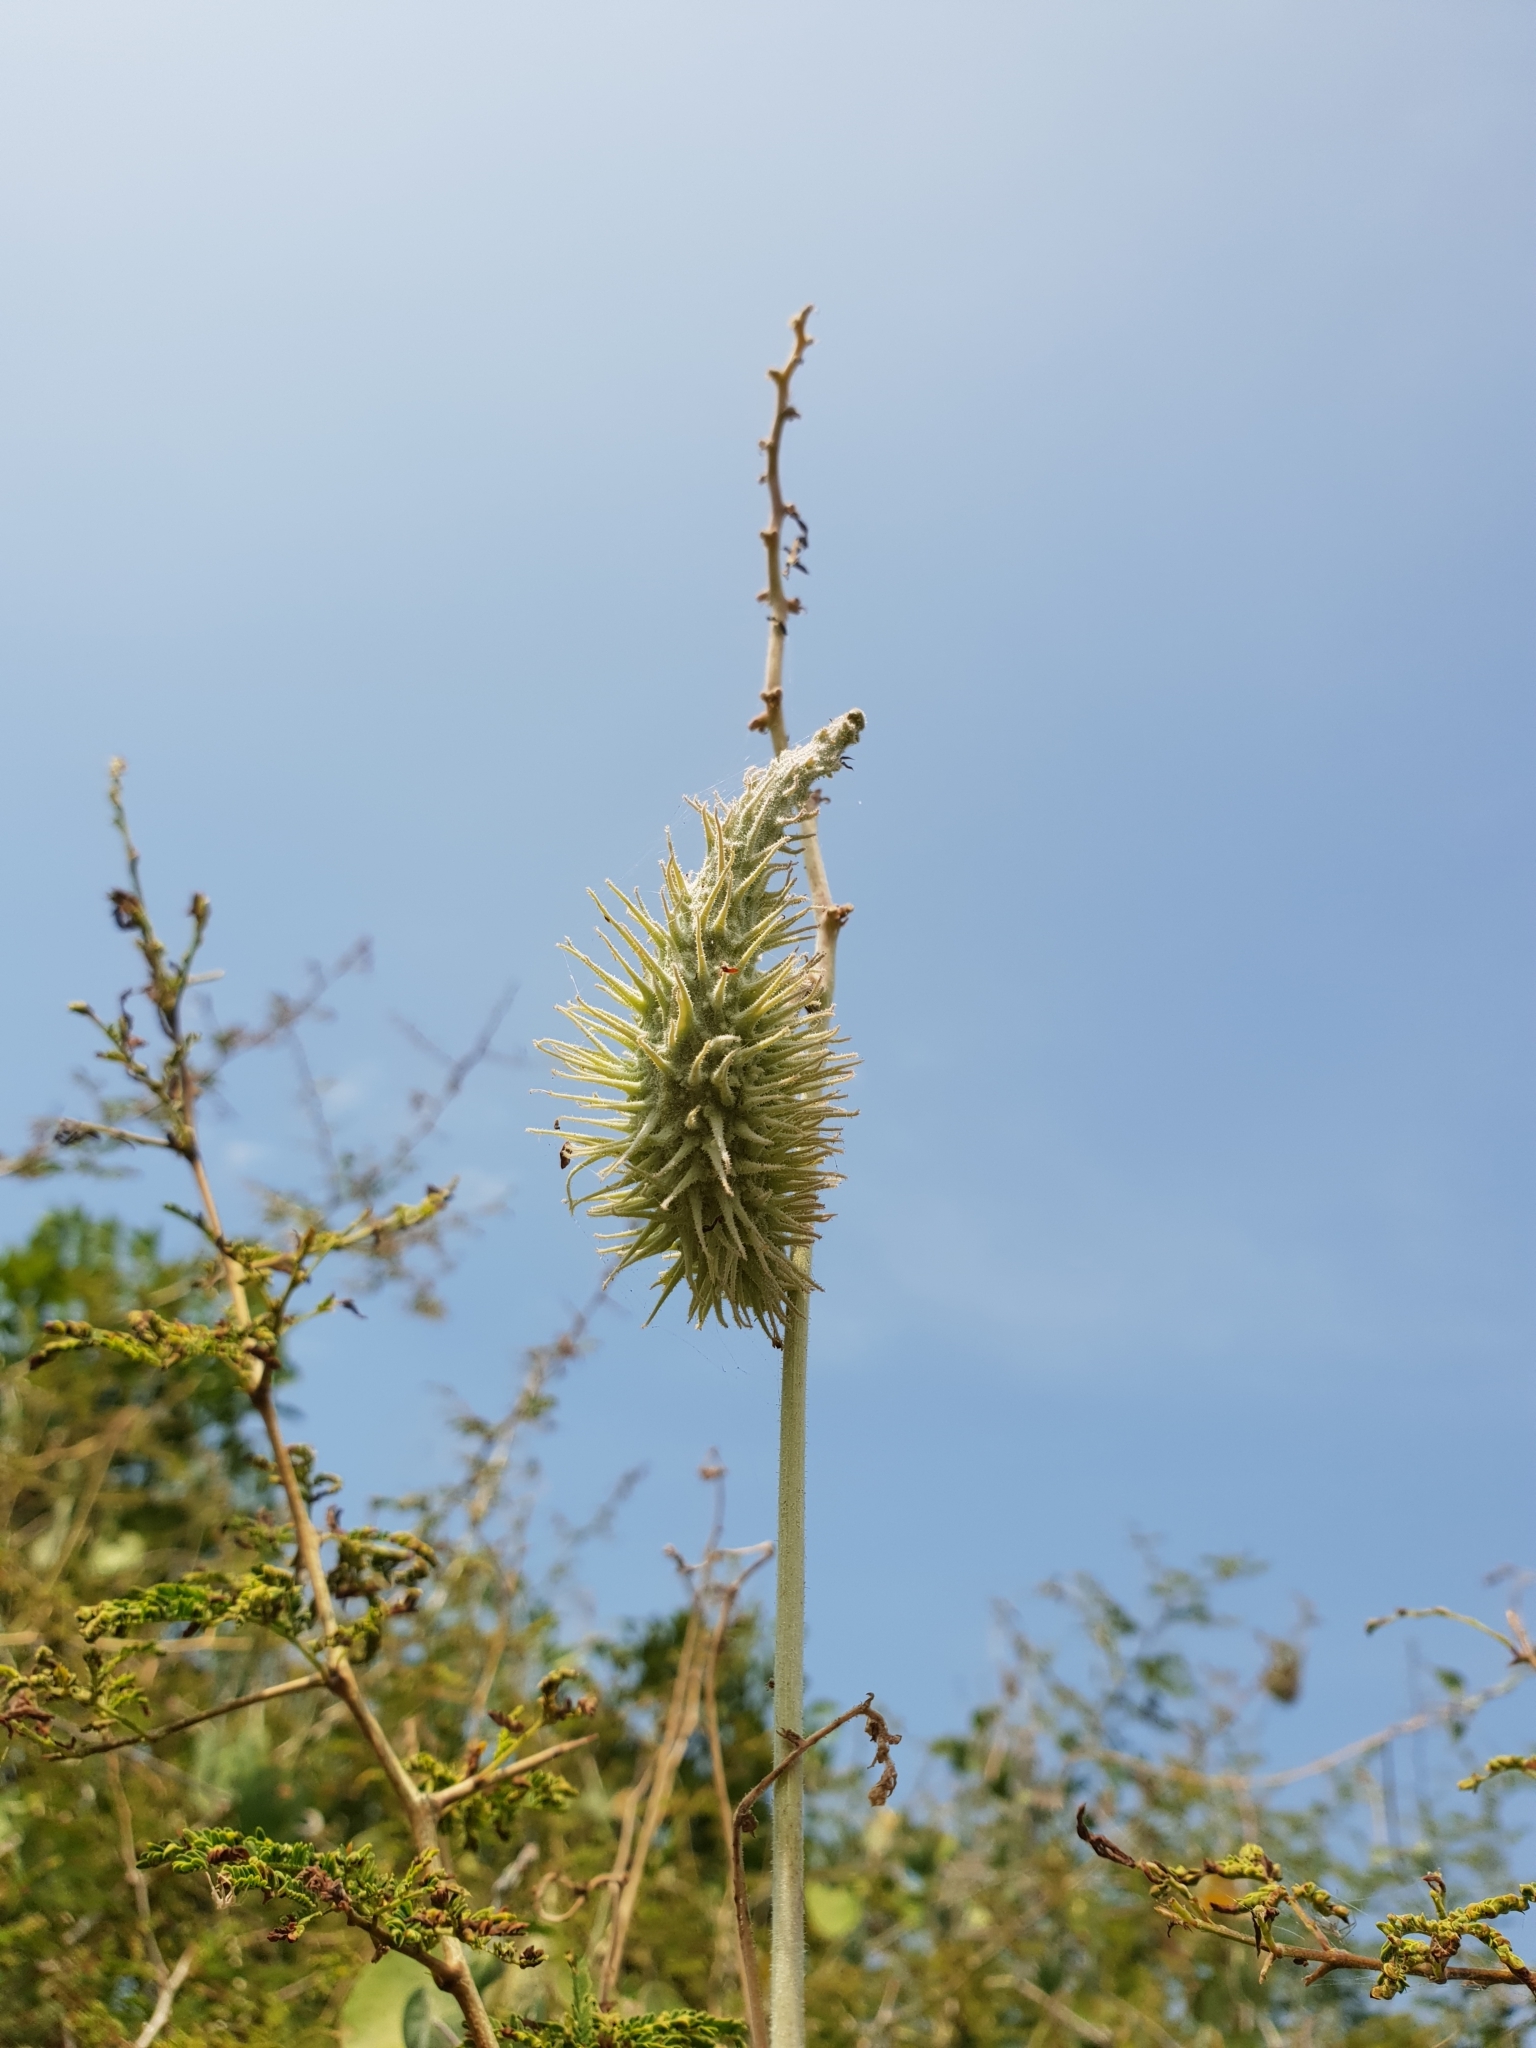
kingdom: Plantae
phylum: Tracheophyta
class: Magnoliopsida
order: Gentianales
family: Apocynaceae
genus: Pergularia
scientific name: Pergularia daemia
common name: Trellis-vine
